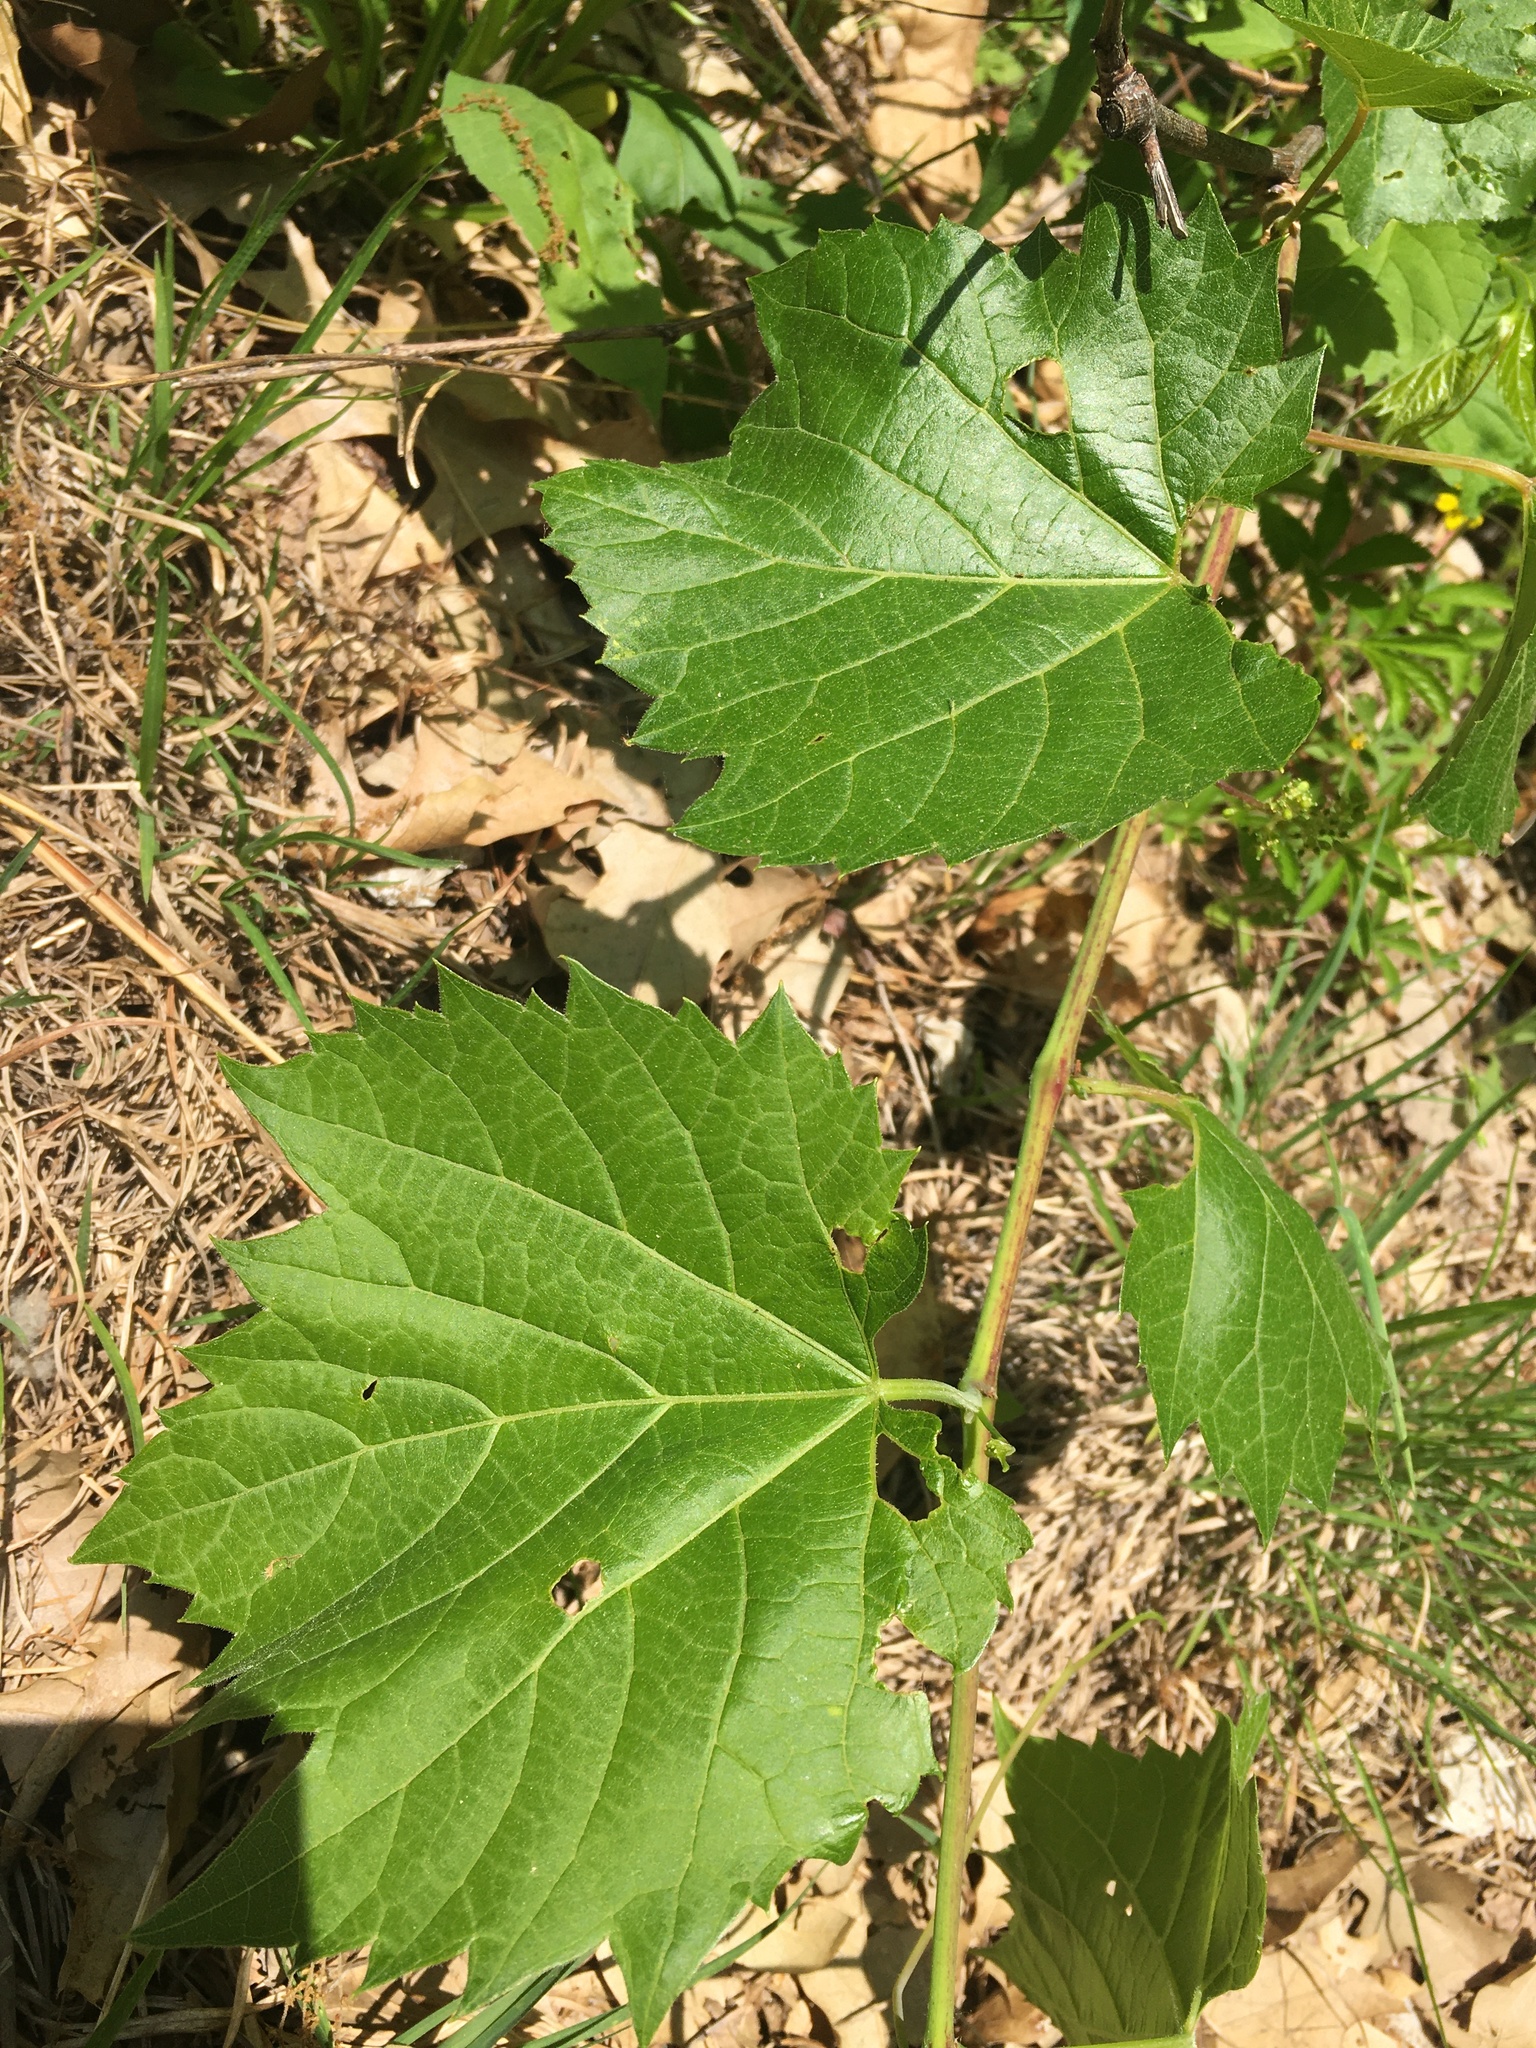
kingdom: Plantae
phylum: Tracheophyta
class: Magnoliopsida
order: Vitales
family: Vitaceae
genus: Vitis
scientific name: Vitis riparia
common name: Frost grape
